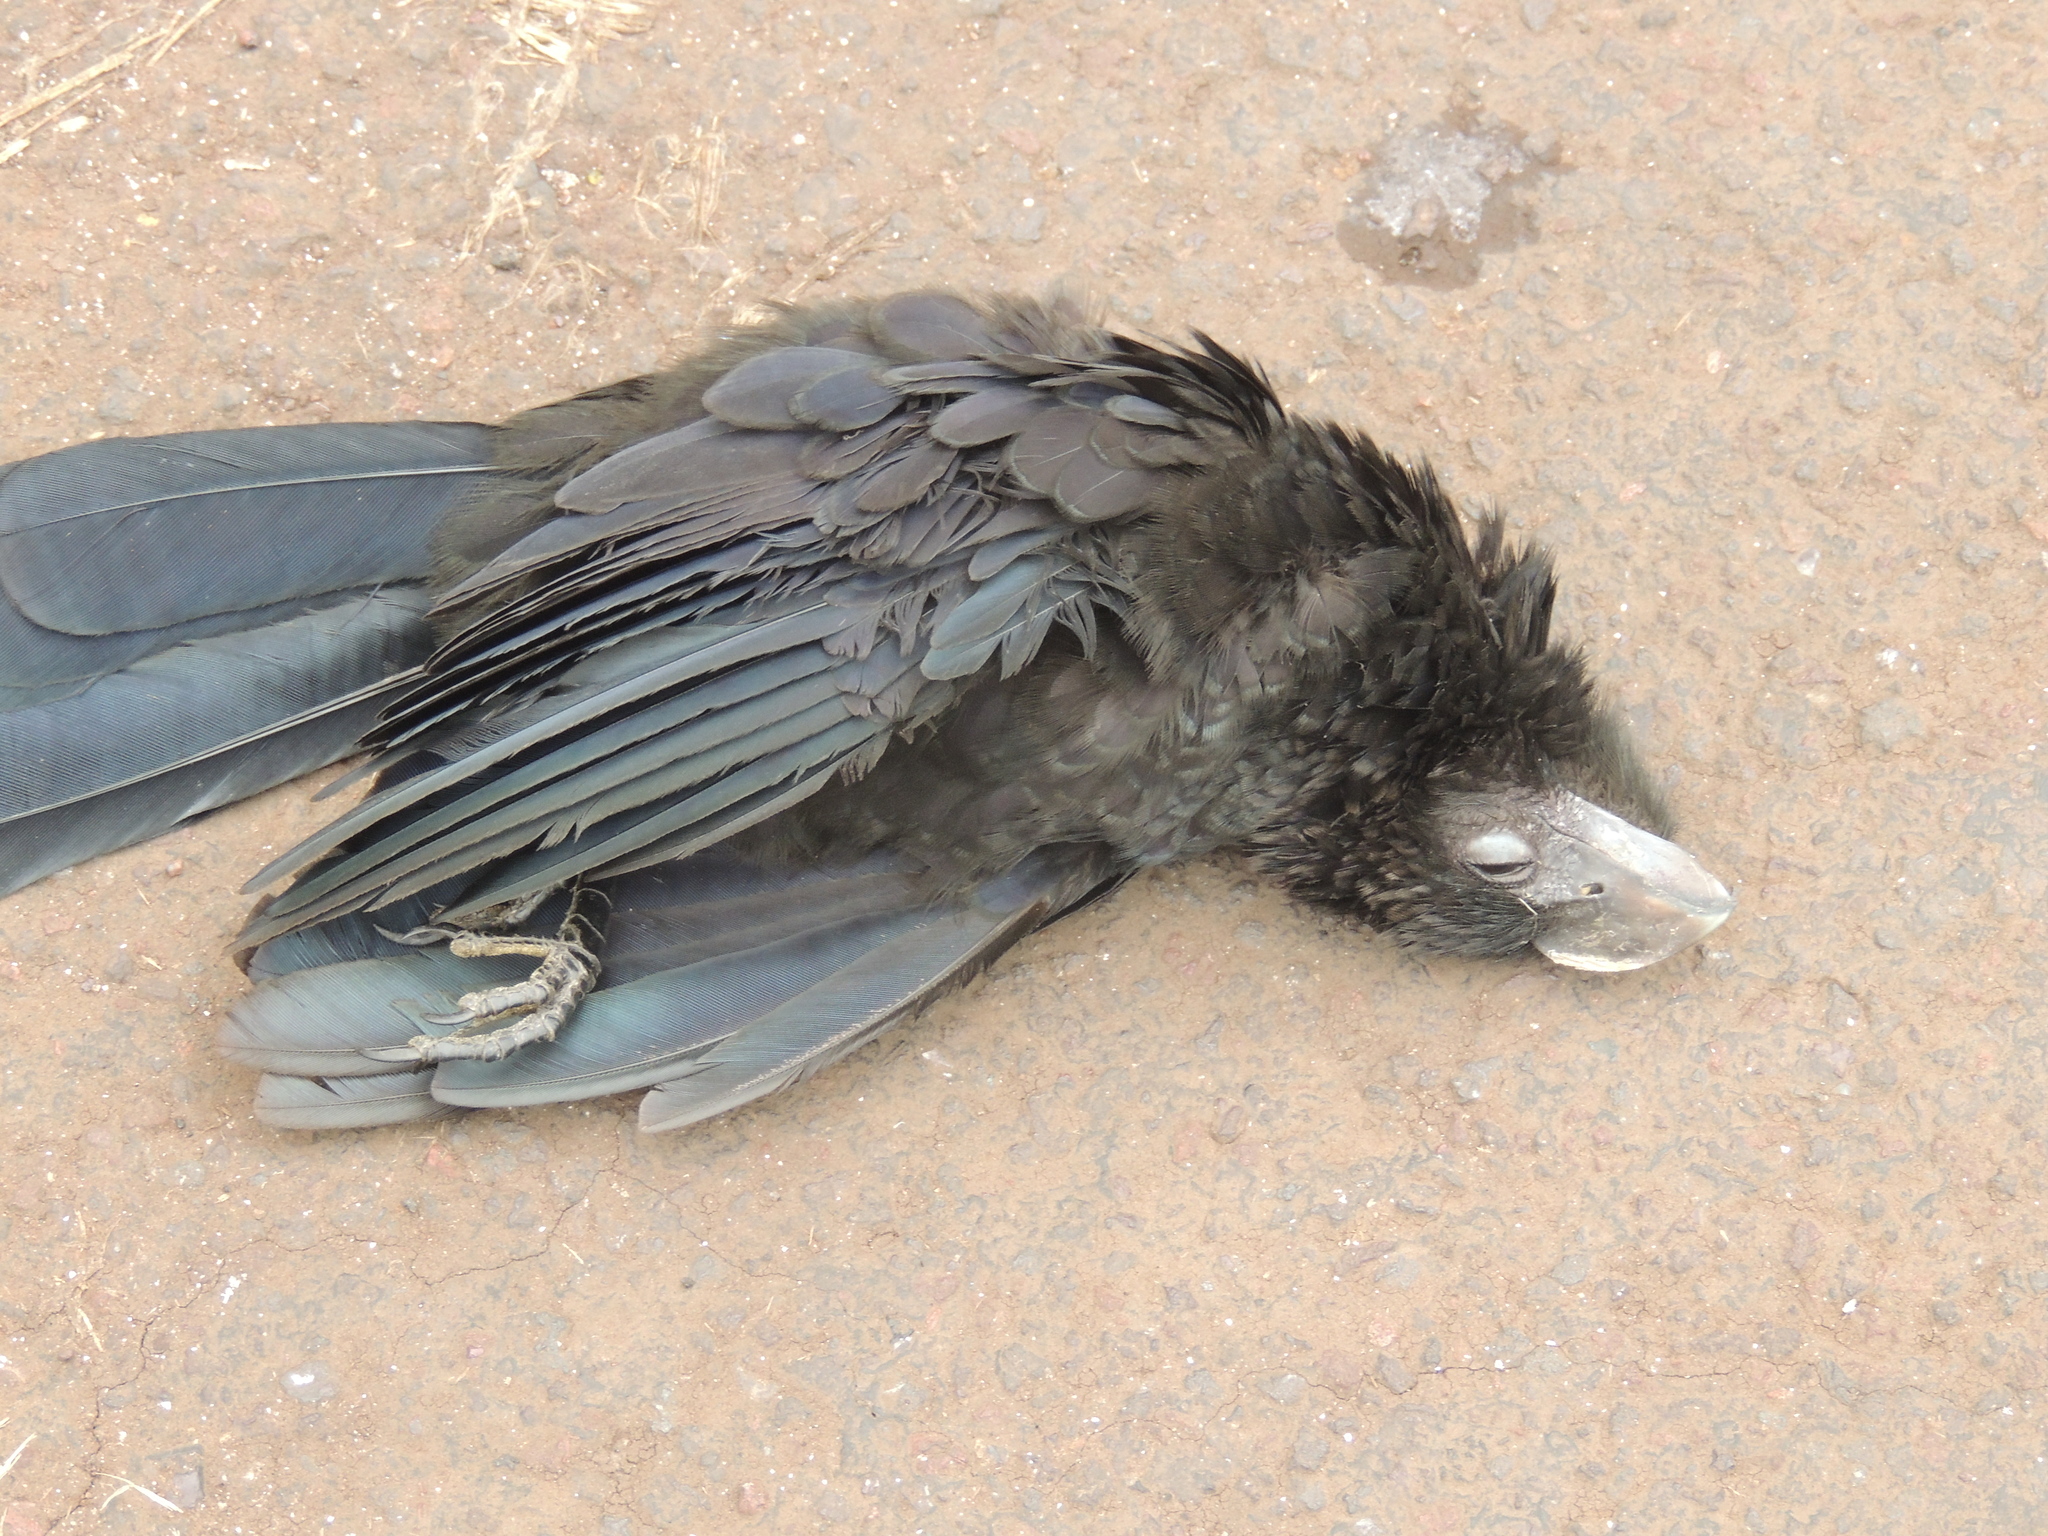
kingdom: Animalia
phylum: Chordata
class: Aves
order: Cuculiformes
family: Cuculidae
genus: Crotophaga
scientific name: Crotophaga ani
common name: Smooth-billed ani
